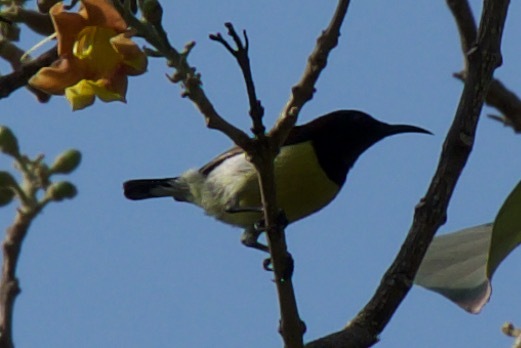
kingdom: Animalia
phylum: Chordata
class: Aves
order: Passeriformes
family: Nectariniidae
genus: Leptocoma
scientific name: Leptocoma zeylonica
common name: Purple-rumped sunbird
